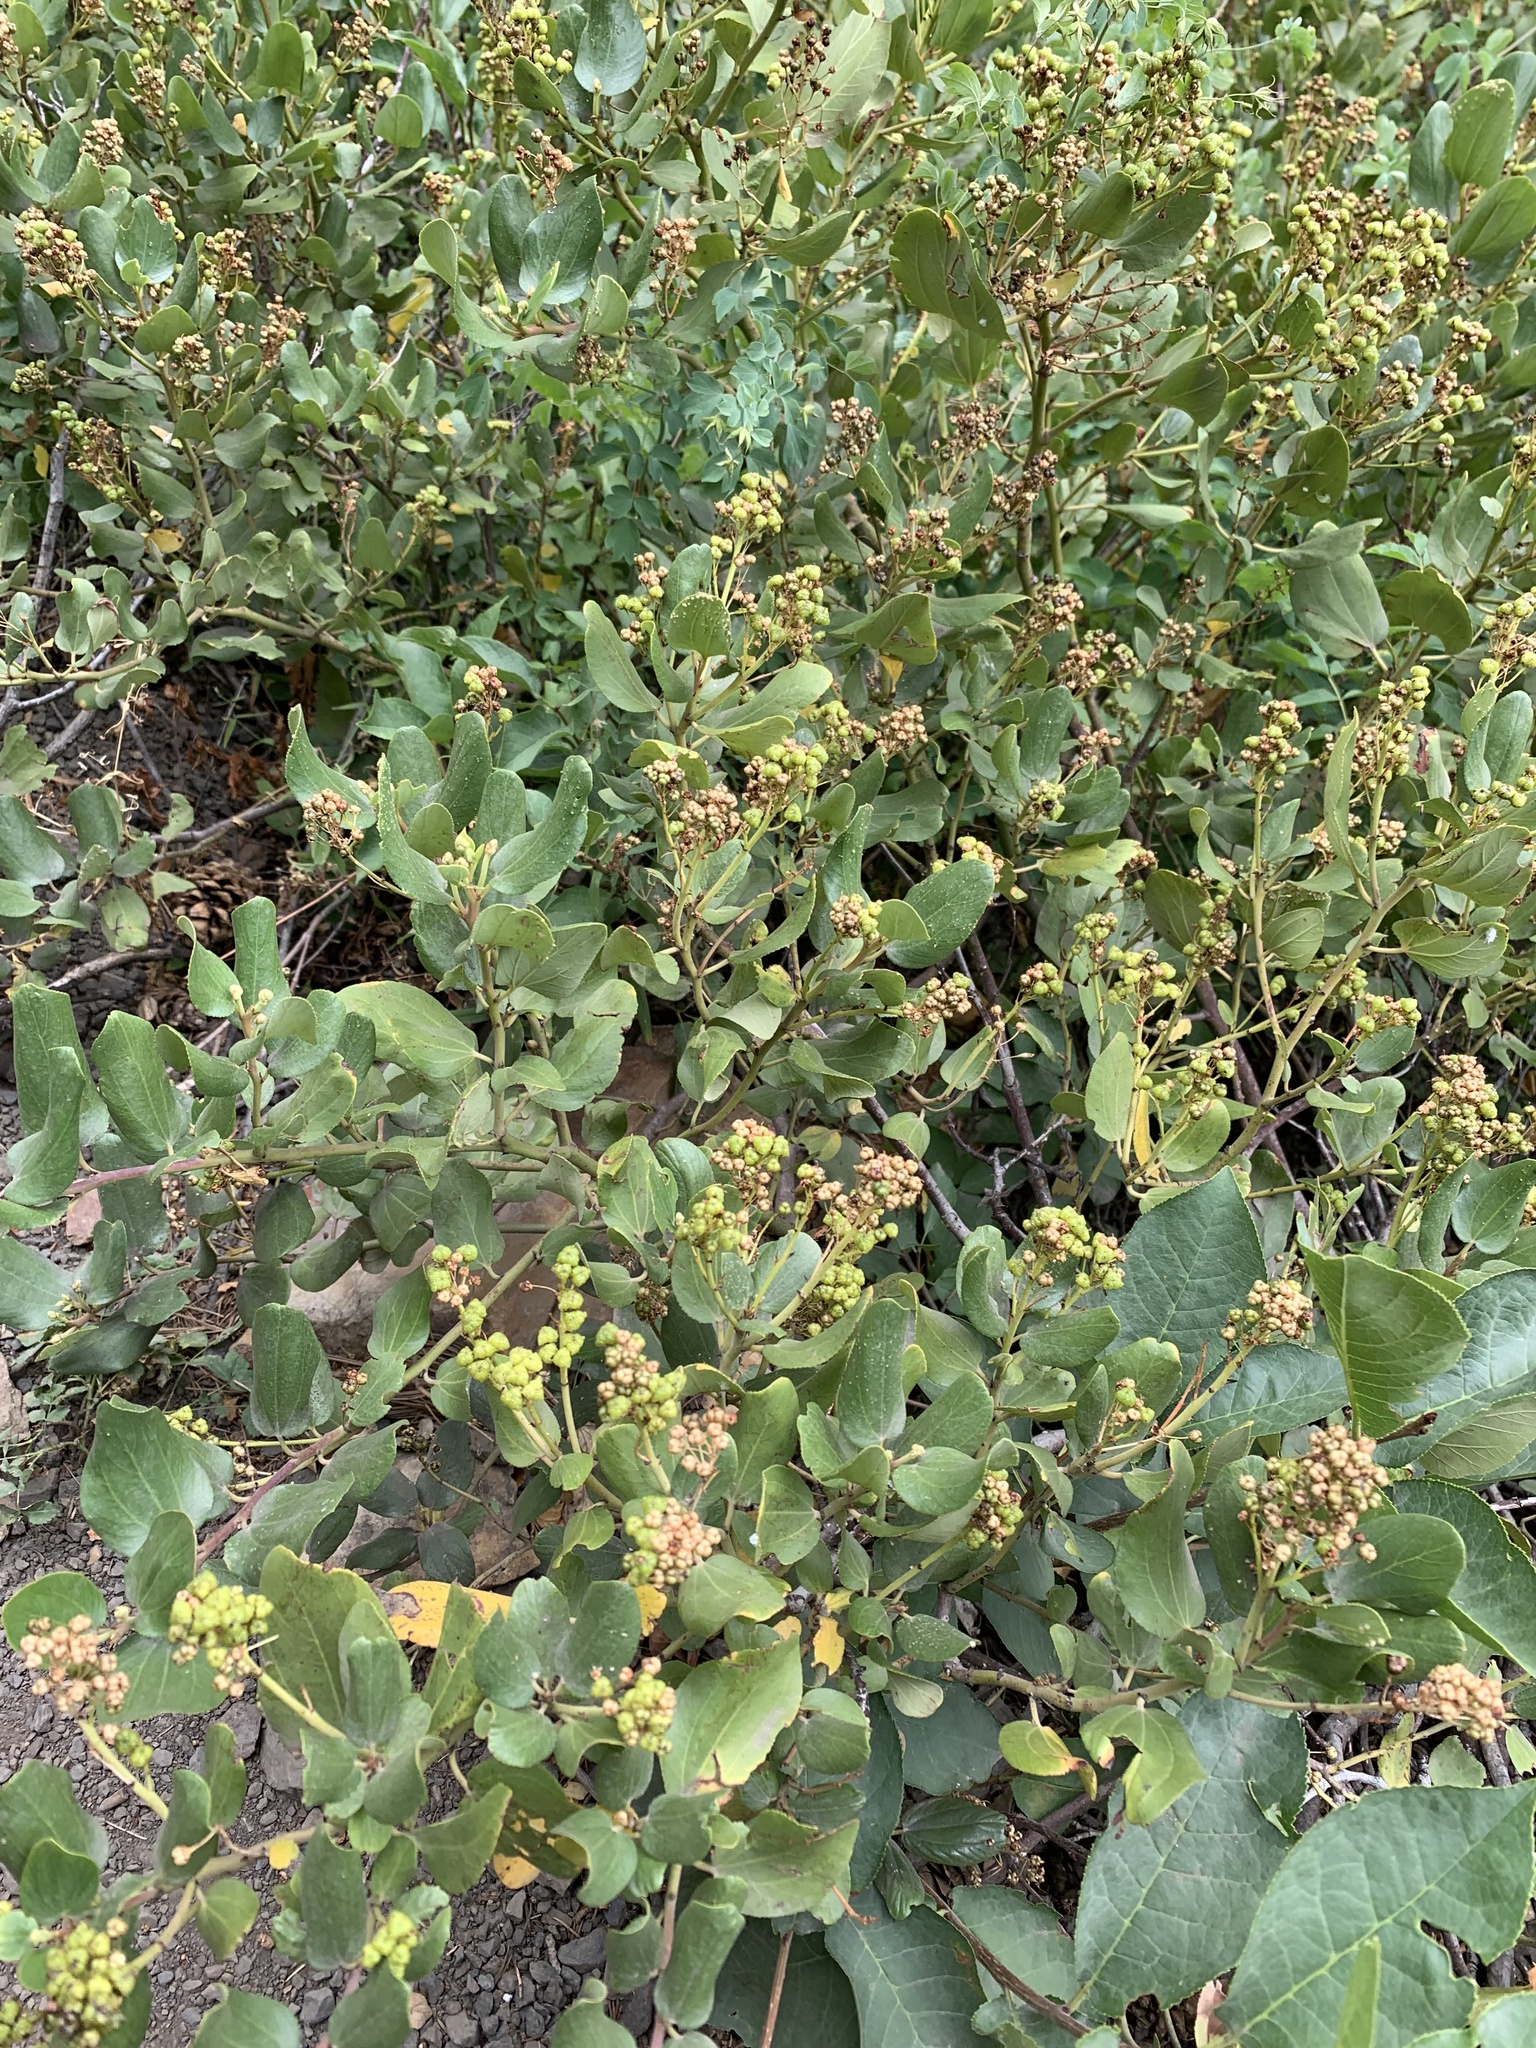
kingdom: Plantae
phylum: Tracheophyta
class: Magnoliopsida
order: Rosales
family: Rhamnaceae
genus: Ceanothus
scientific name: Ceanothus velutinus
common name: Snowbrush
